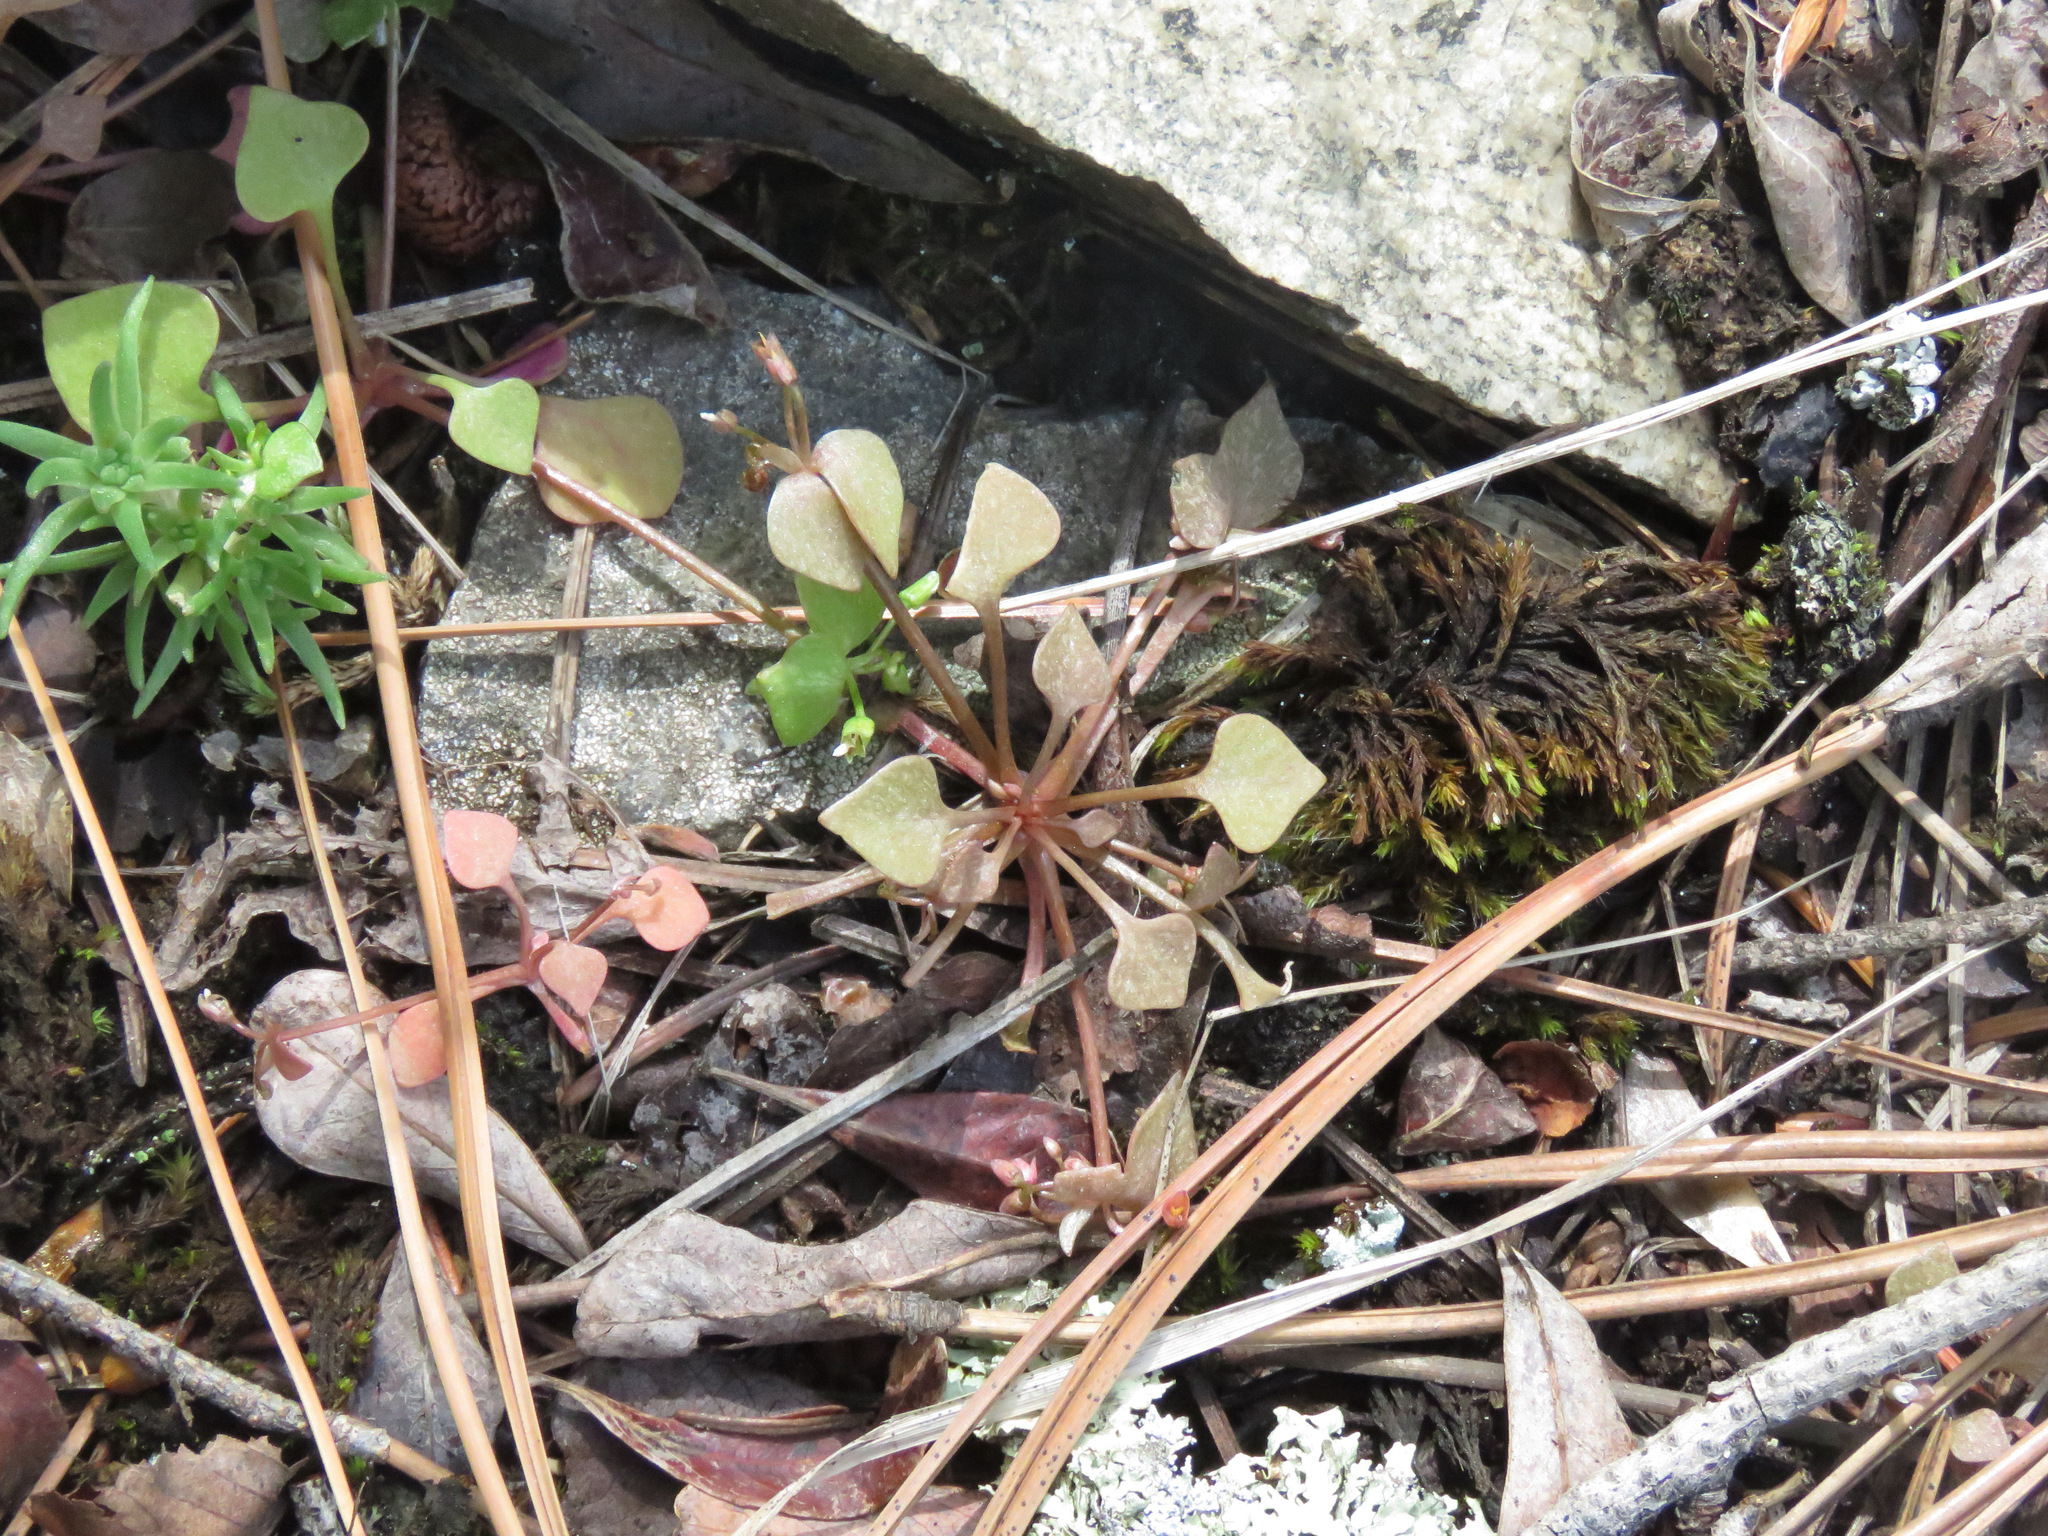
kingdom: Plantae
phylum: Tracheophyta
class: Magnoliopsida
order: Caryophyllales
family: Montiaceae
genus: Claytonia
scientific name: Claytonia rubra
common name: Erubescent miner's-lettuce
